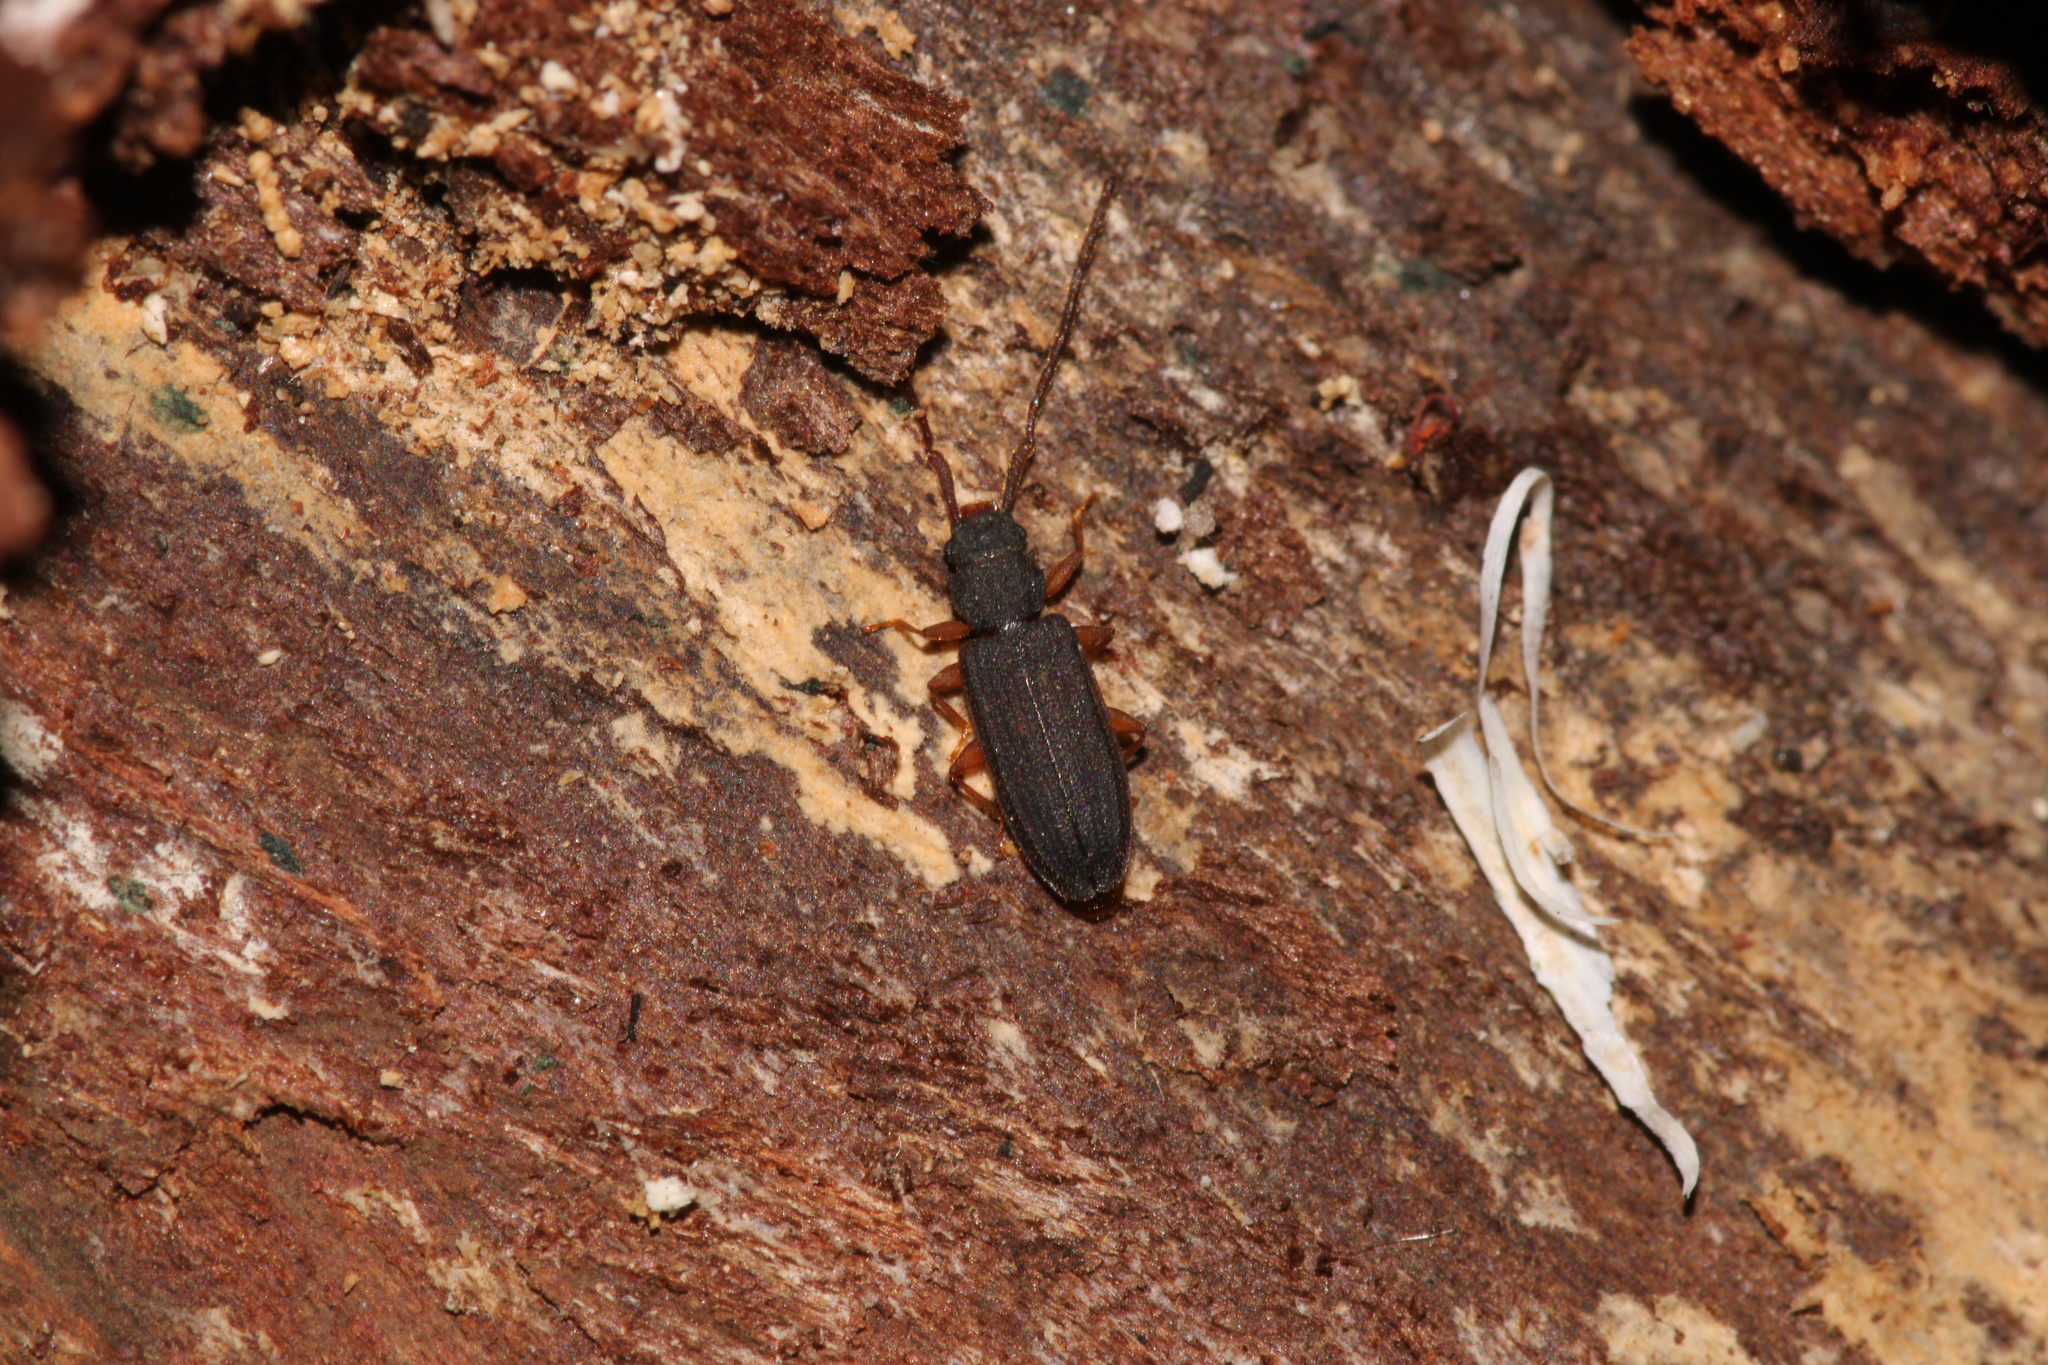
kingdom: Animalia
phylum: Arthropoda
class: Insecta
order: Coleoptera
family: Silvanidae
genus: Uleiota
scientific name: Uleiota planatus
